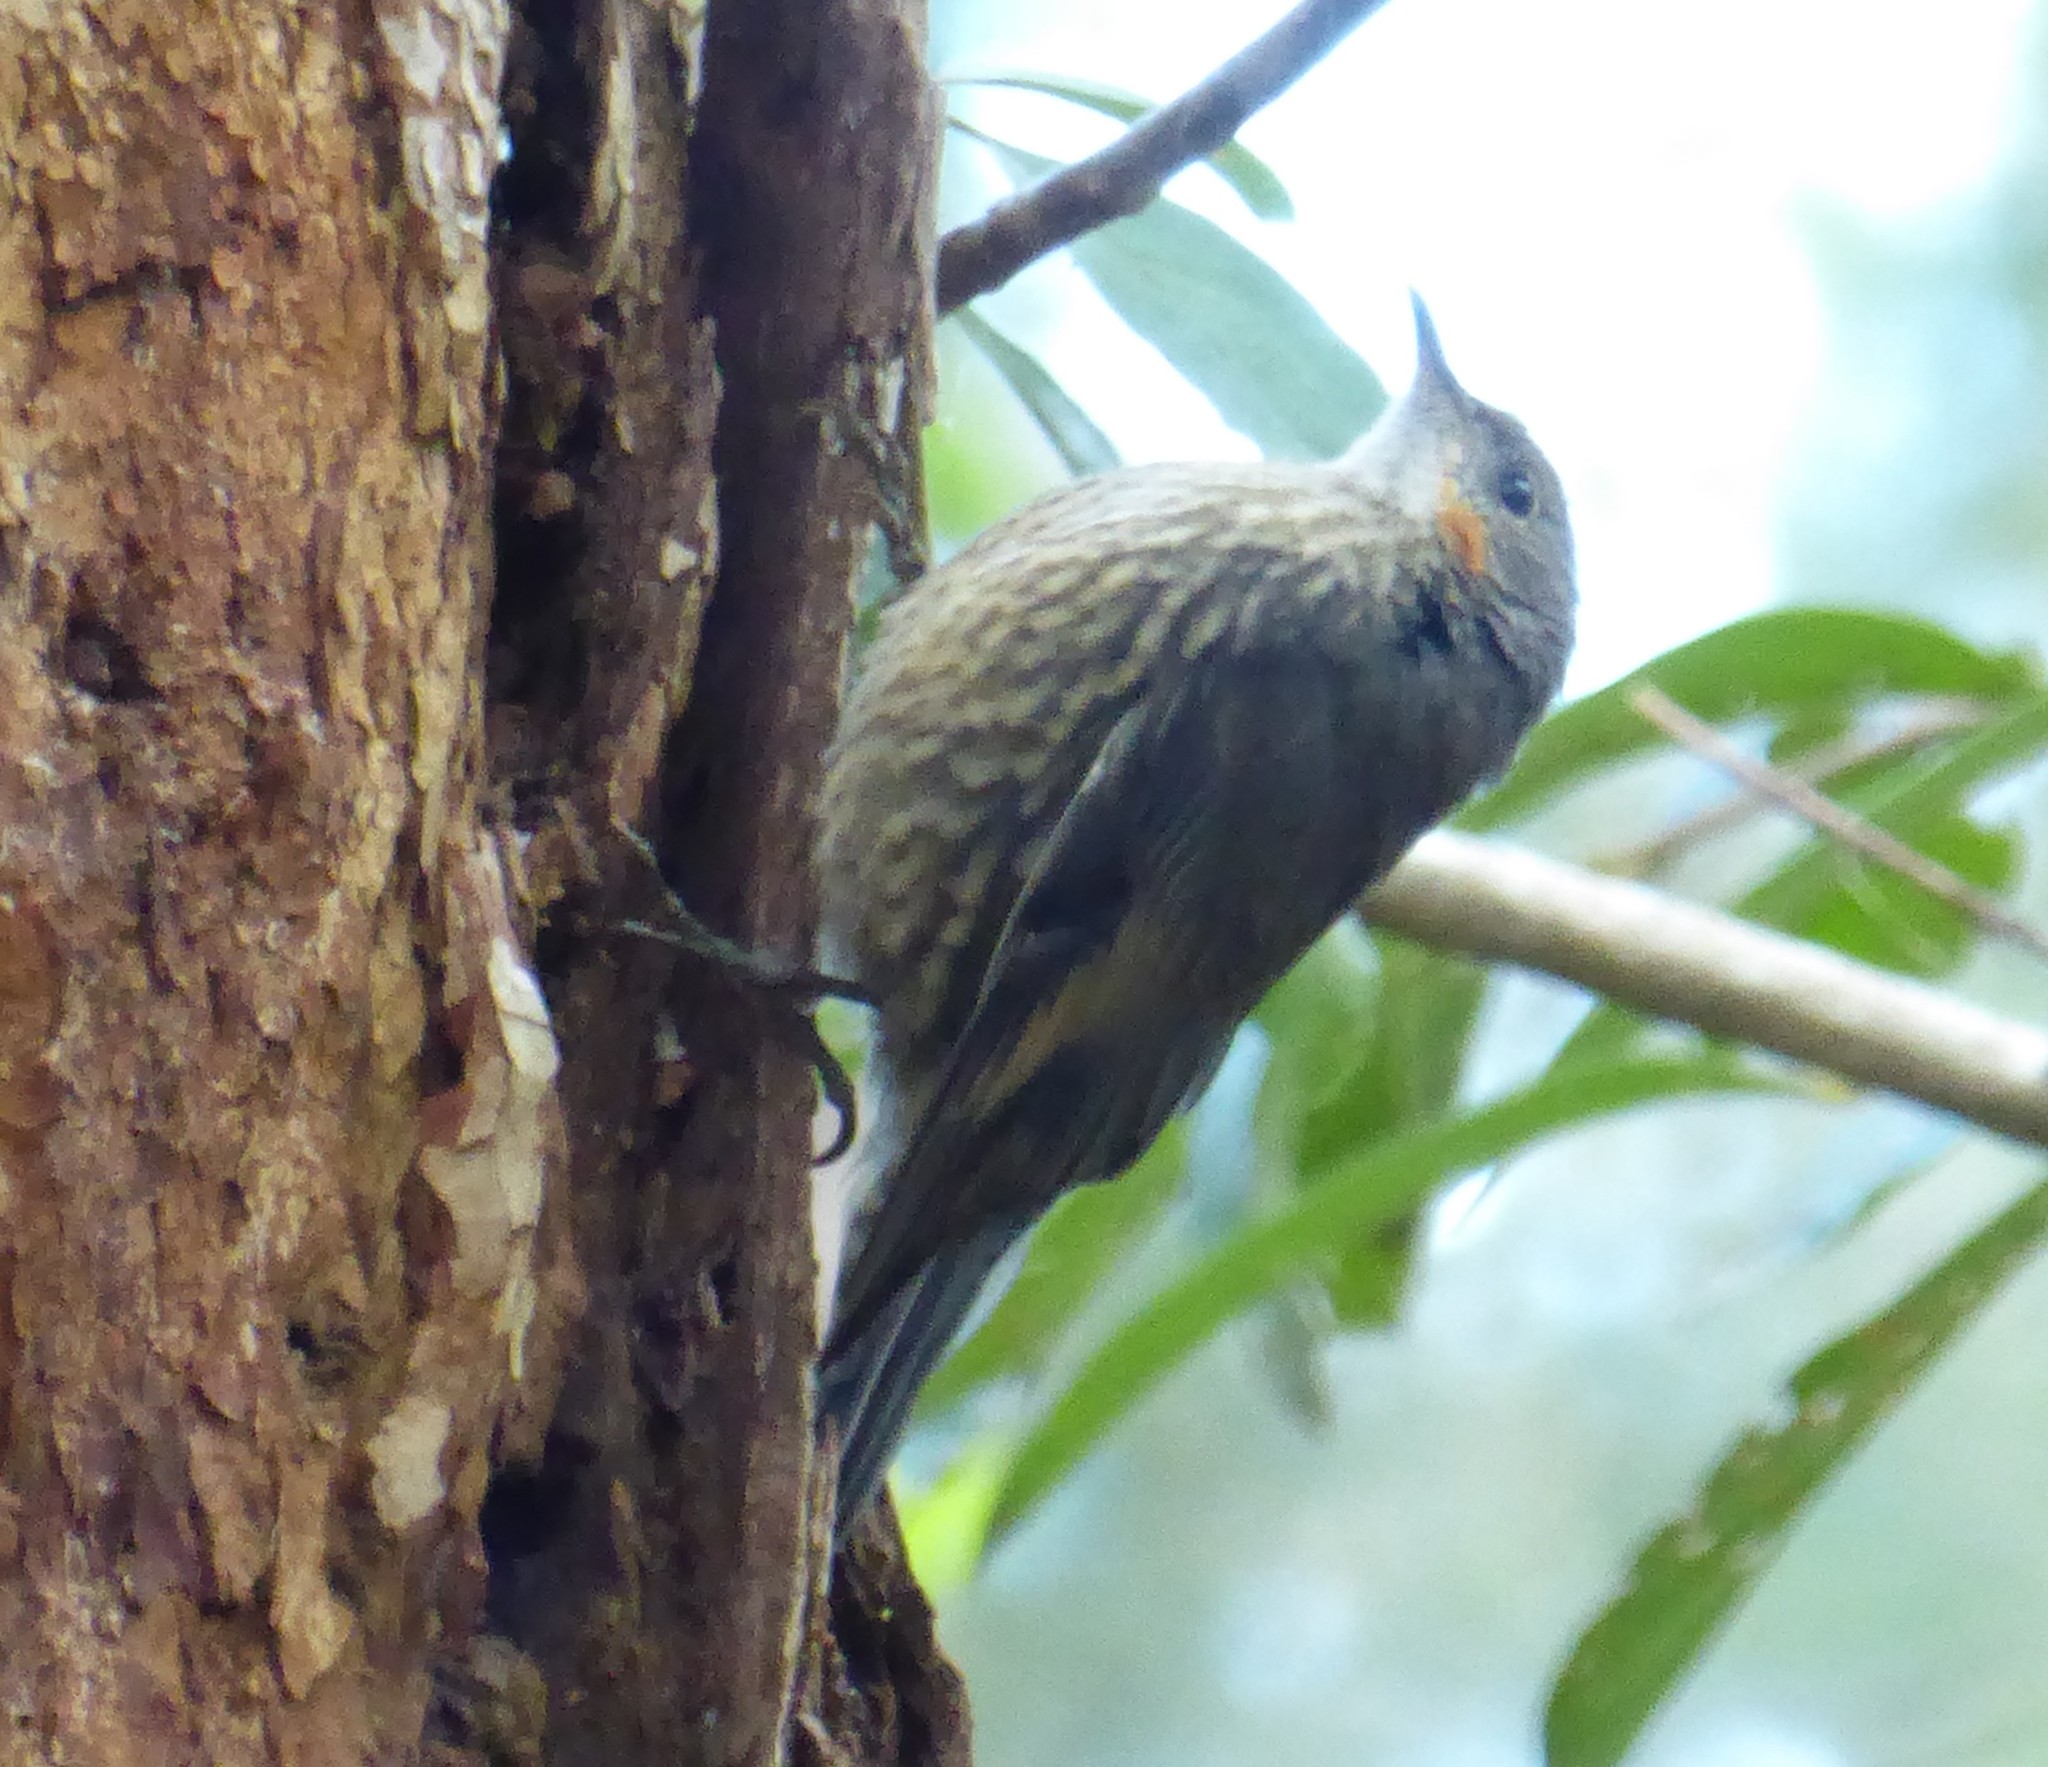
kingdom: Animalia
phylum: Chordata
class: Aves
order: Passeriformes
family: Climacteridae
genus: Cormobates
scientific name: Cormobates leucophaea
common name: White-throated treecreeper
